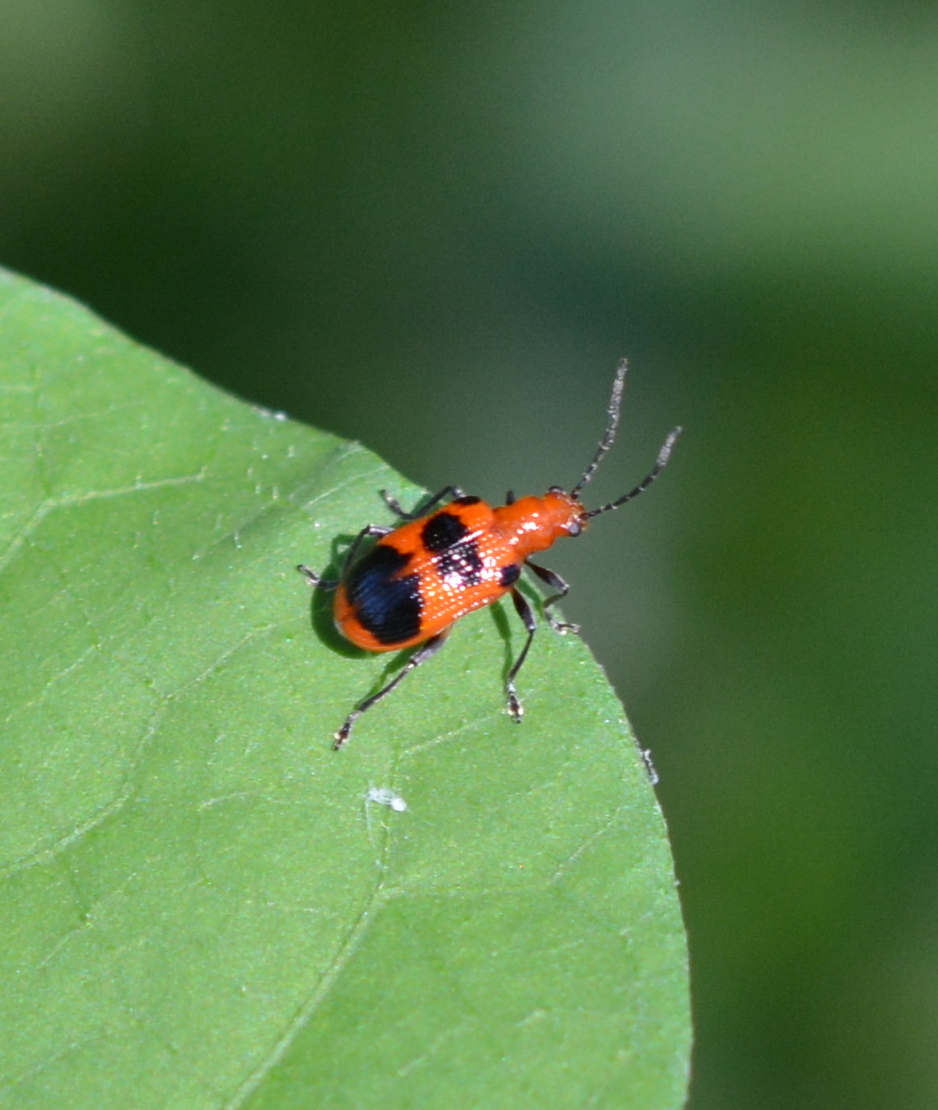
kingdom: Animalia
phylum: Arthropoda
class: Insecta
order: Coleoptera
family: Chrysomelidae
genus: Neolema
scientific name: Neolema sexpunctata
